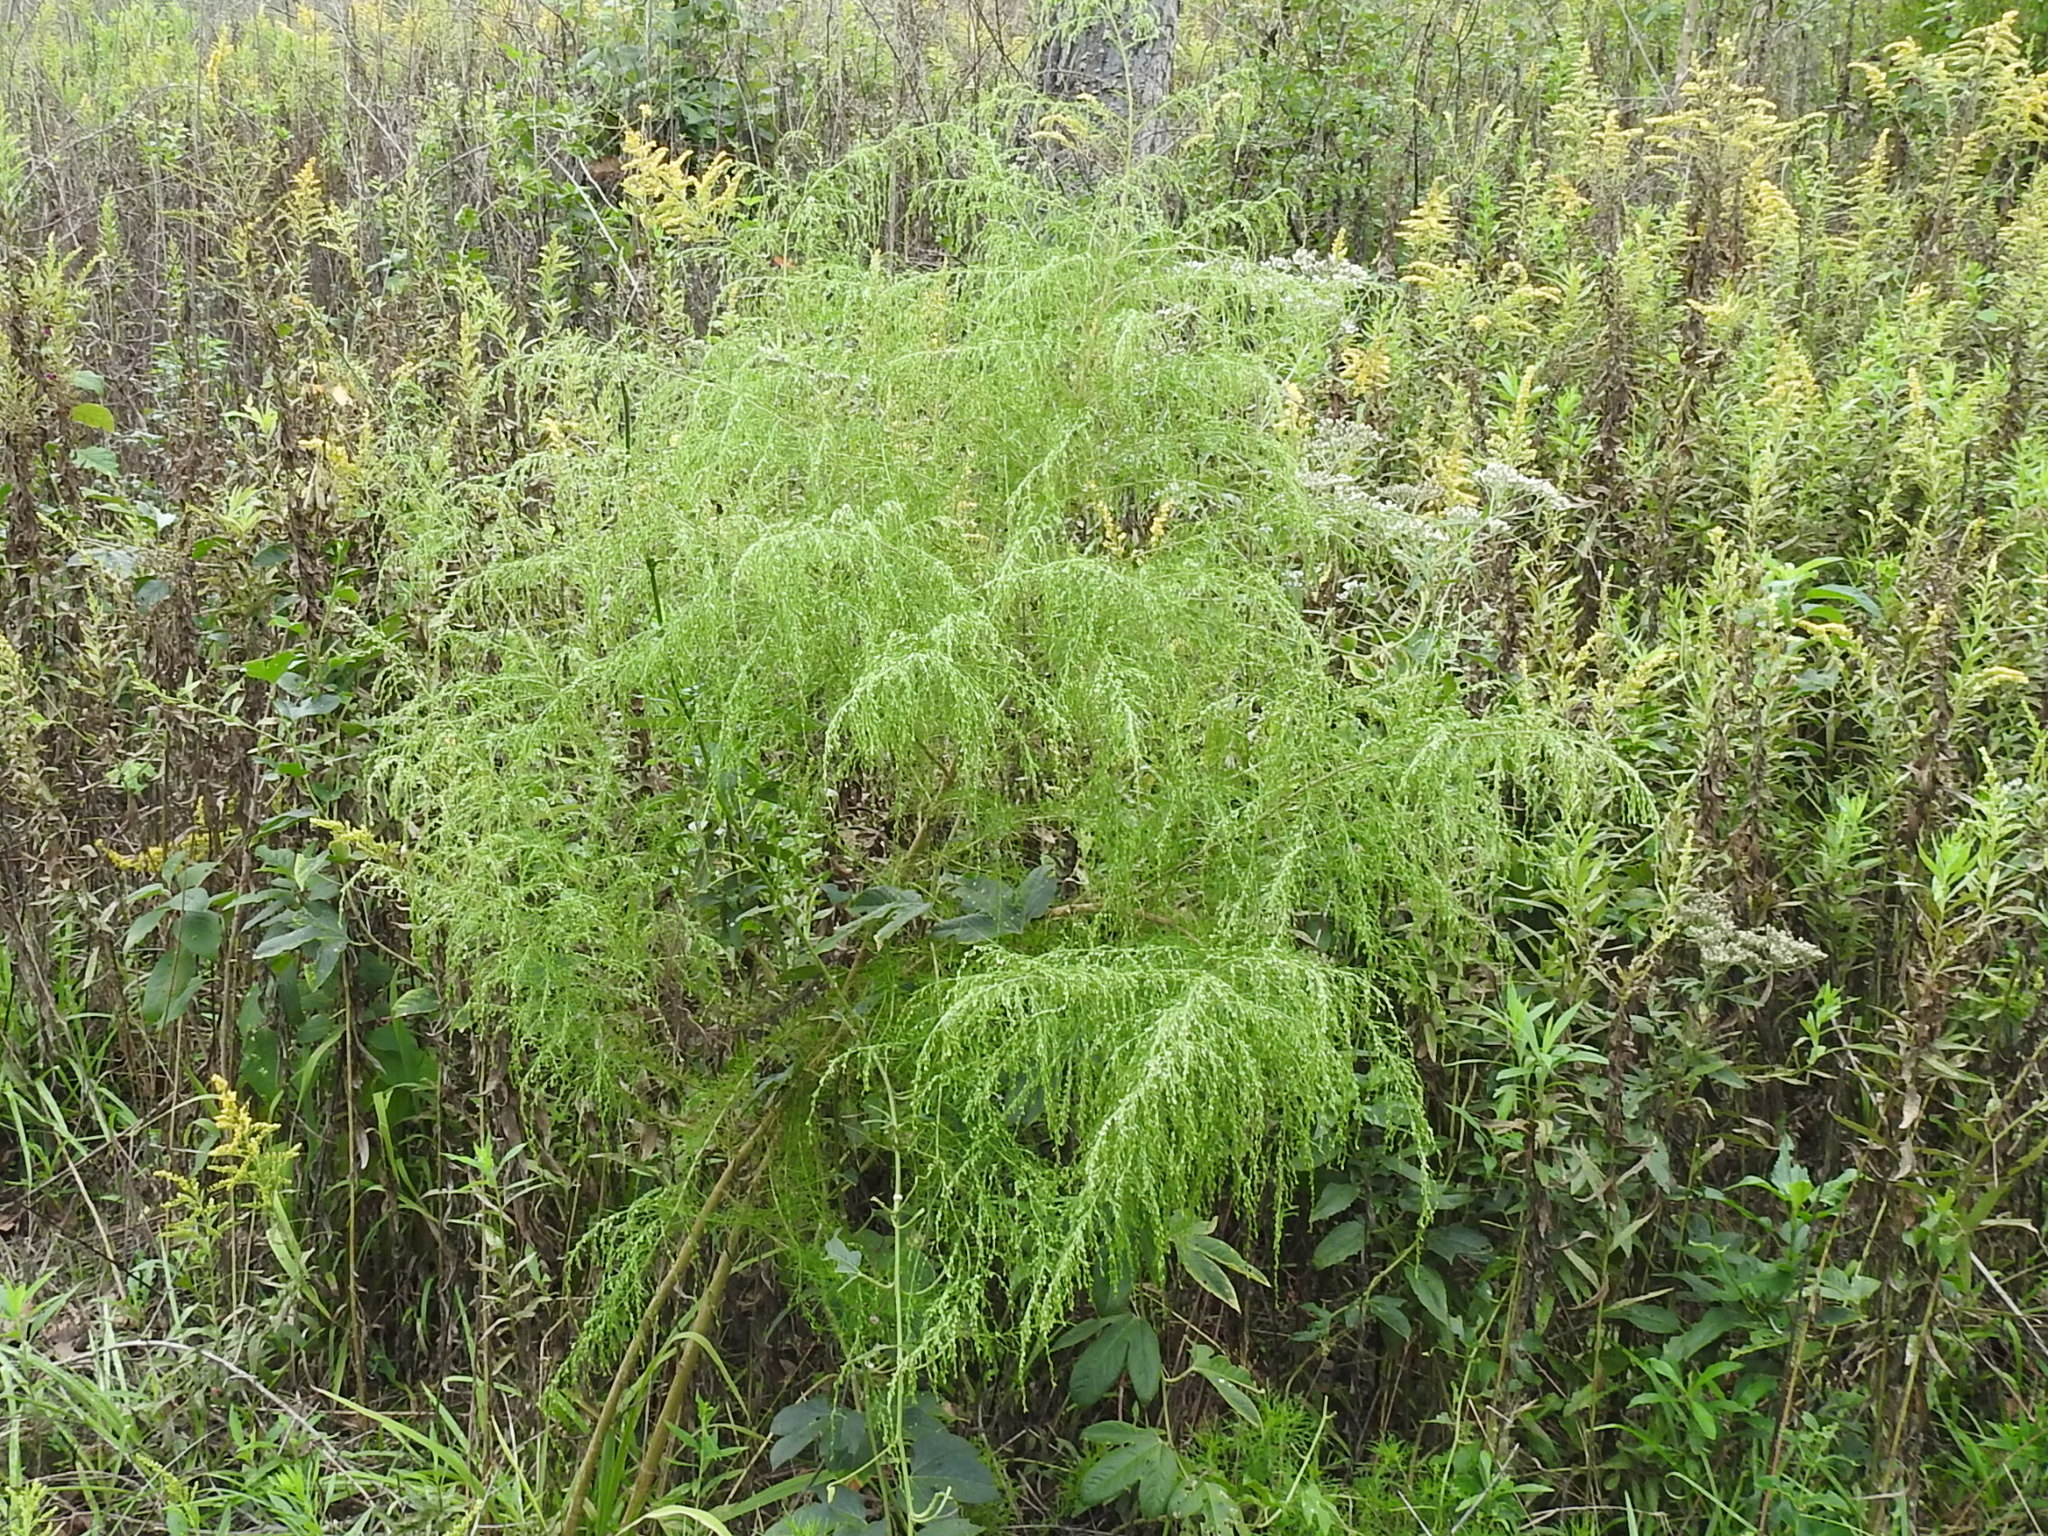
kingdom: Plantae
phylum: Tracheophyta
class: Magnoliopsida
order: Asterales
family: Asteraceae
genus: Eupatorium
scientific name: Eupatorium capillifolium
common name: Dog-fennel
